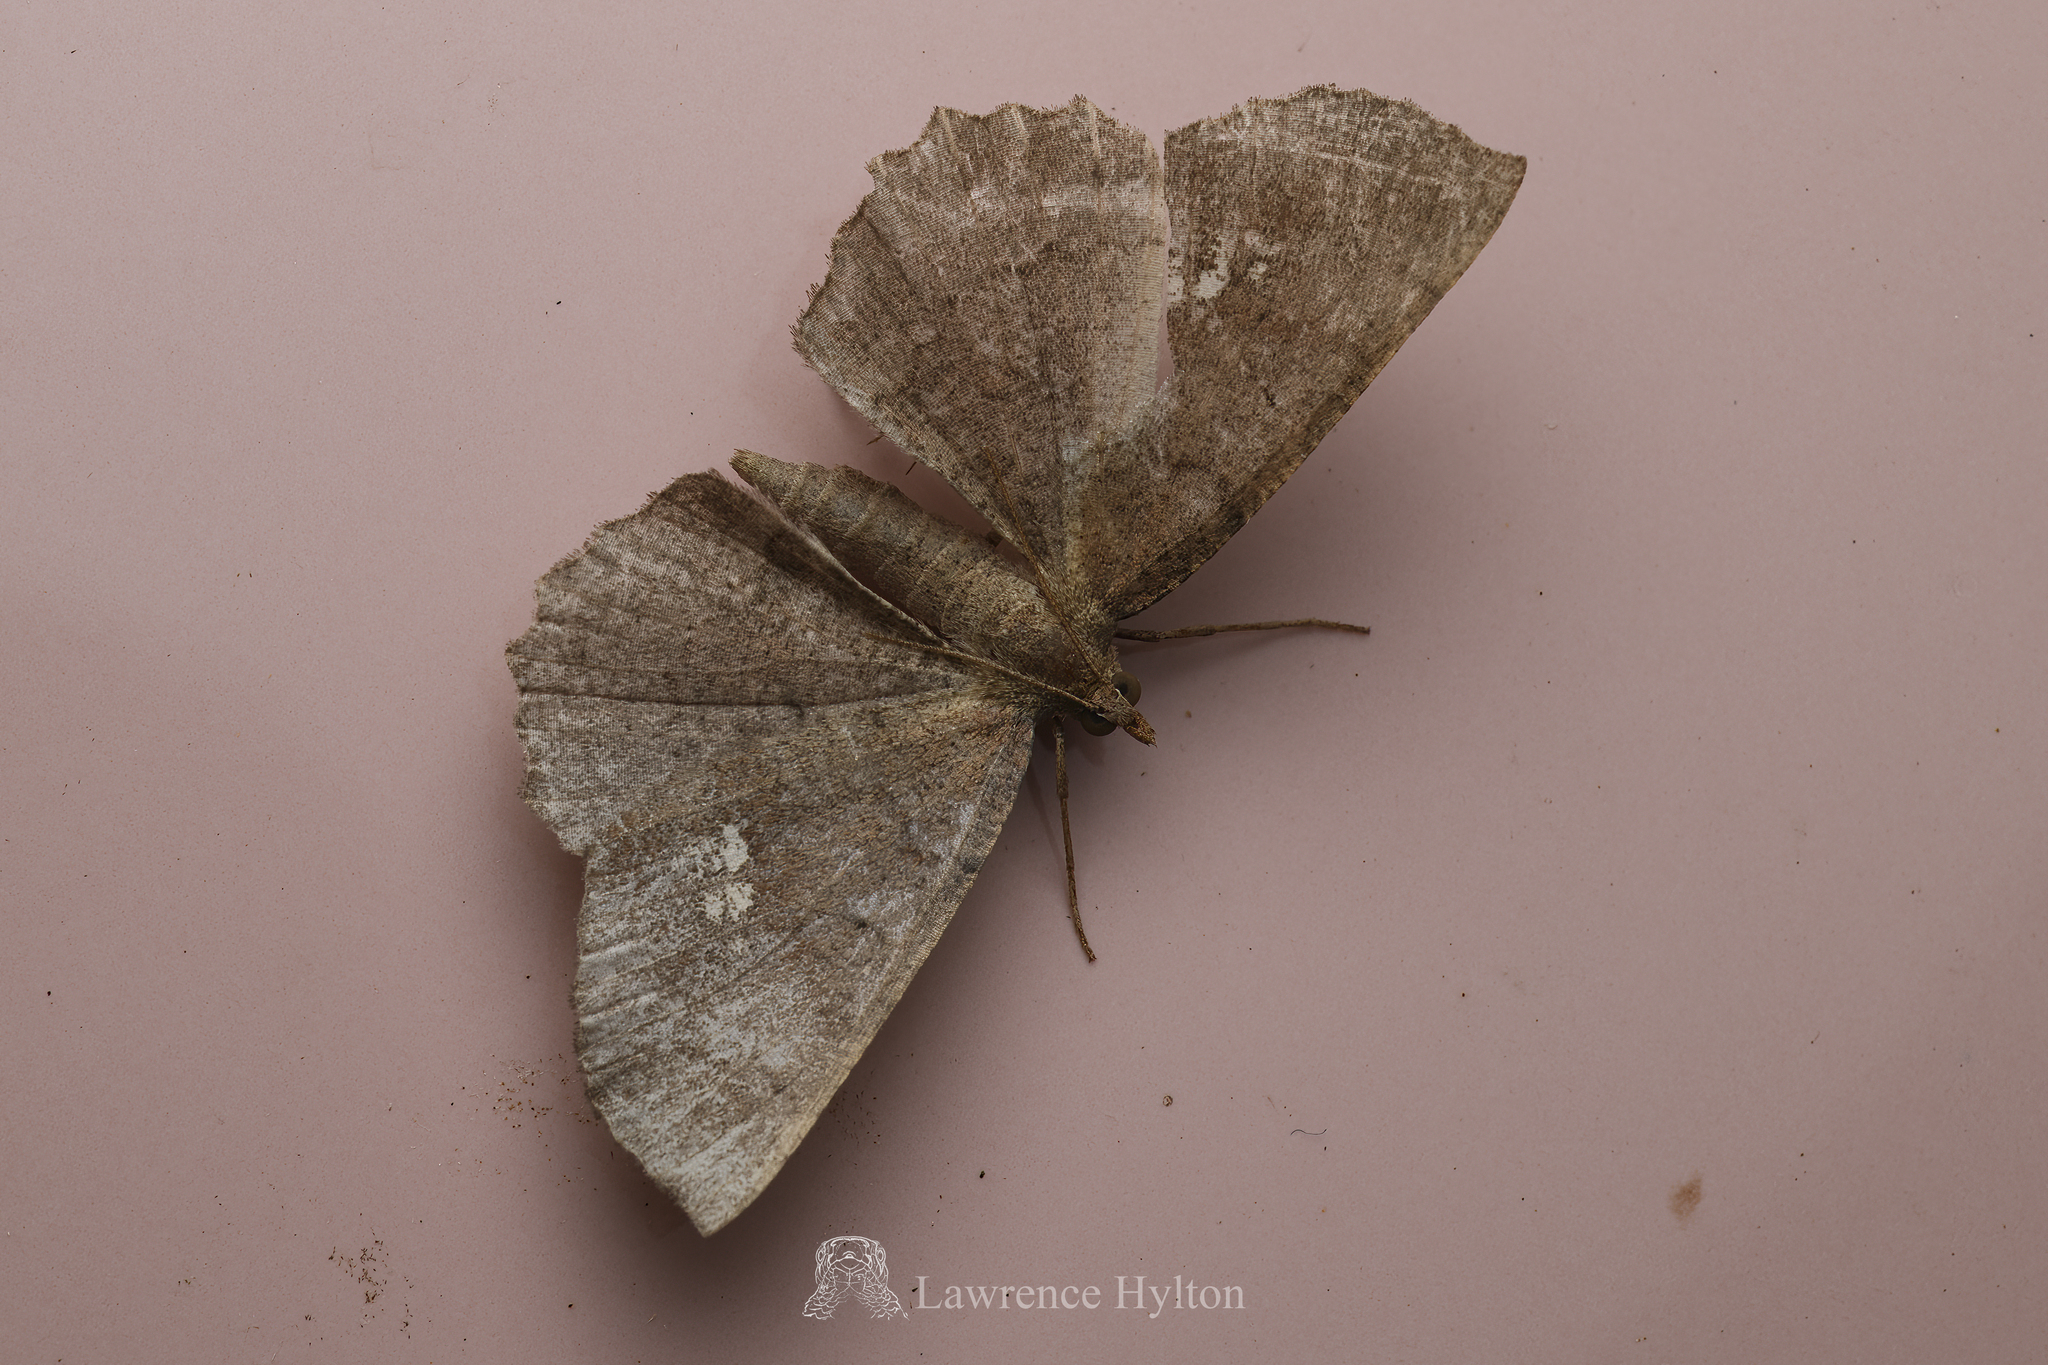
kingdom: Animalia
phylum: Arthropoda
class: Insecta
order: Lepidoptera
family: Geometridae
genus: Xerodes
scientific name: Xerodes contiguaria
